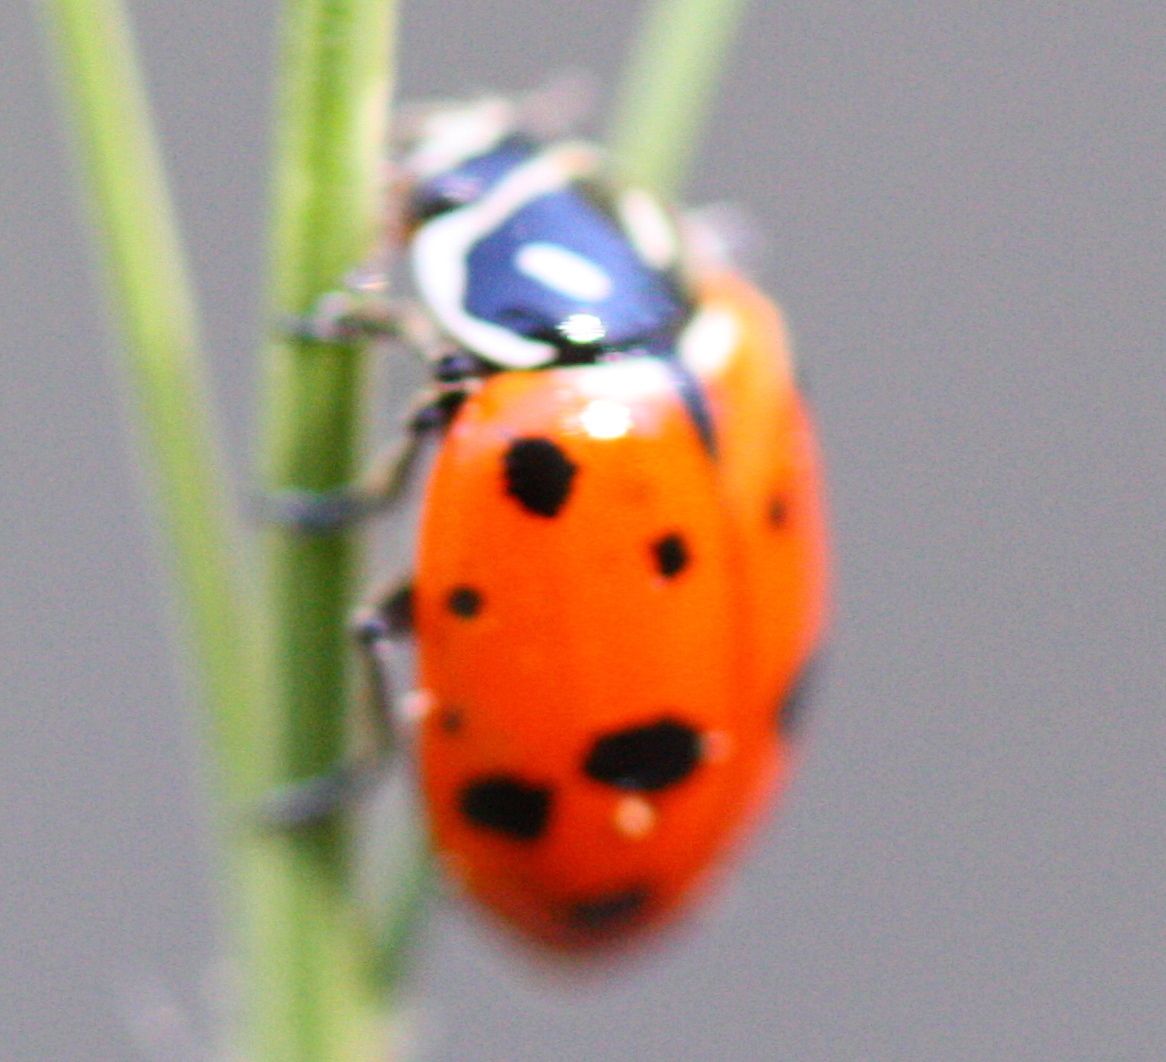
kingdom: Animalia
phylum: Arthropoda
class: Insecta
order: Coleoptera
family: Coccinellidae
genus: Hippodamia
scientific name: Hippodamia convergens
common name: Convergent lady beetle
